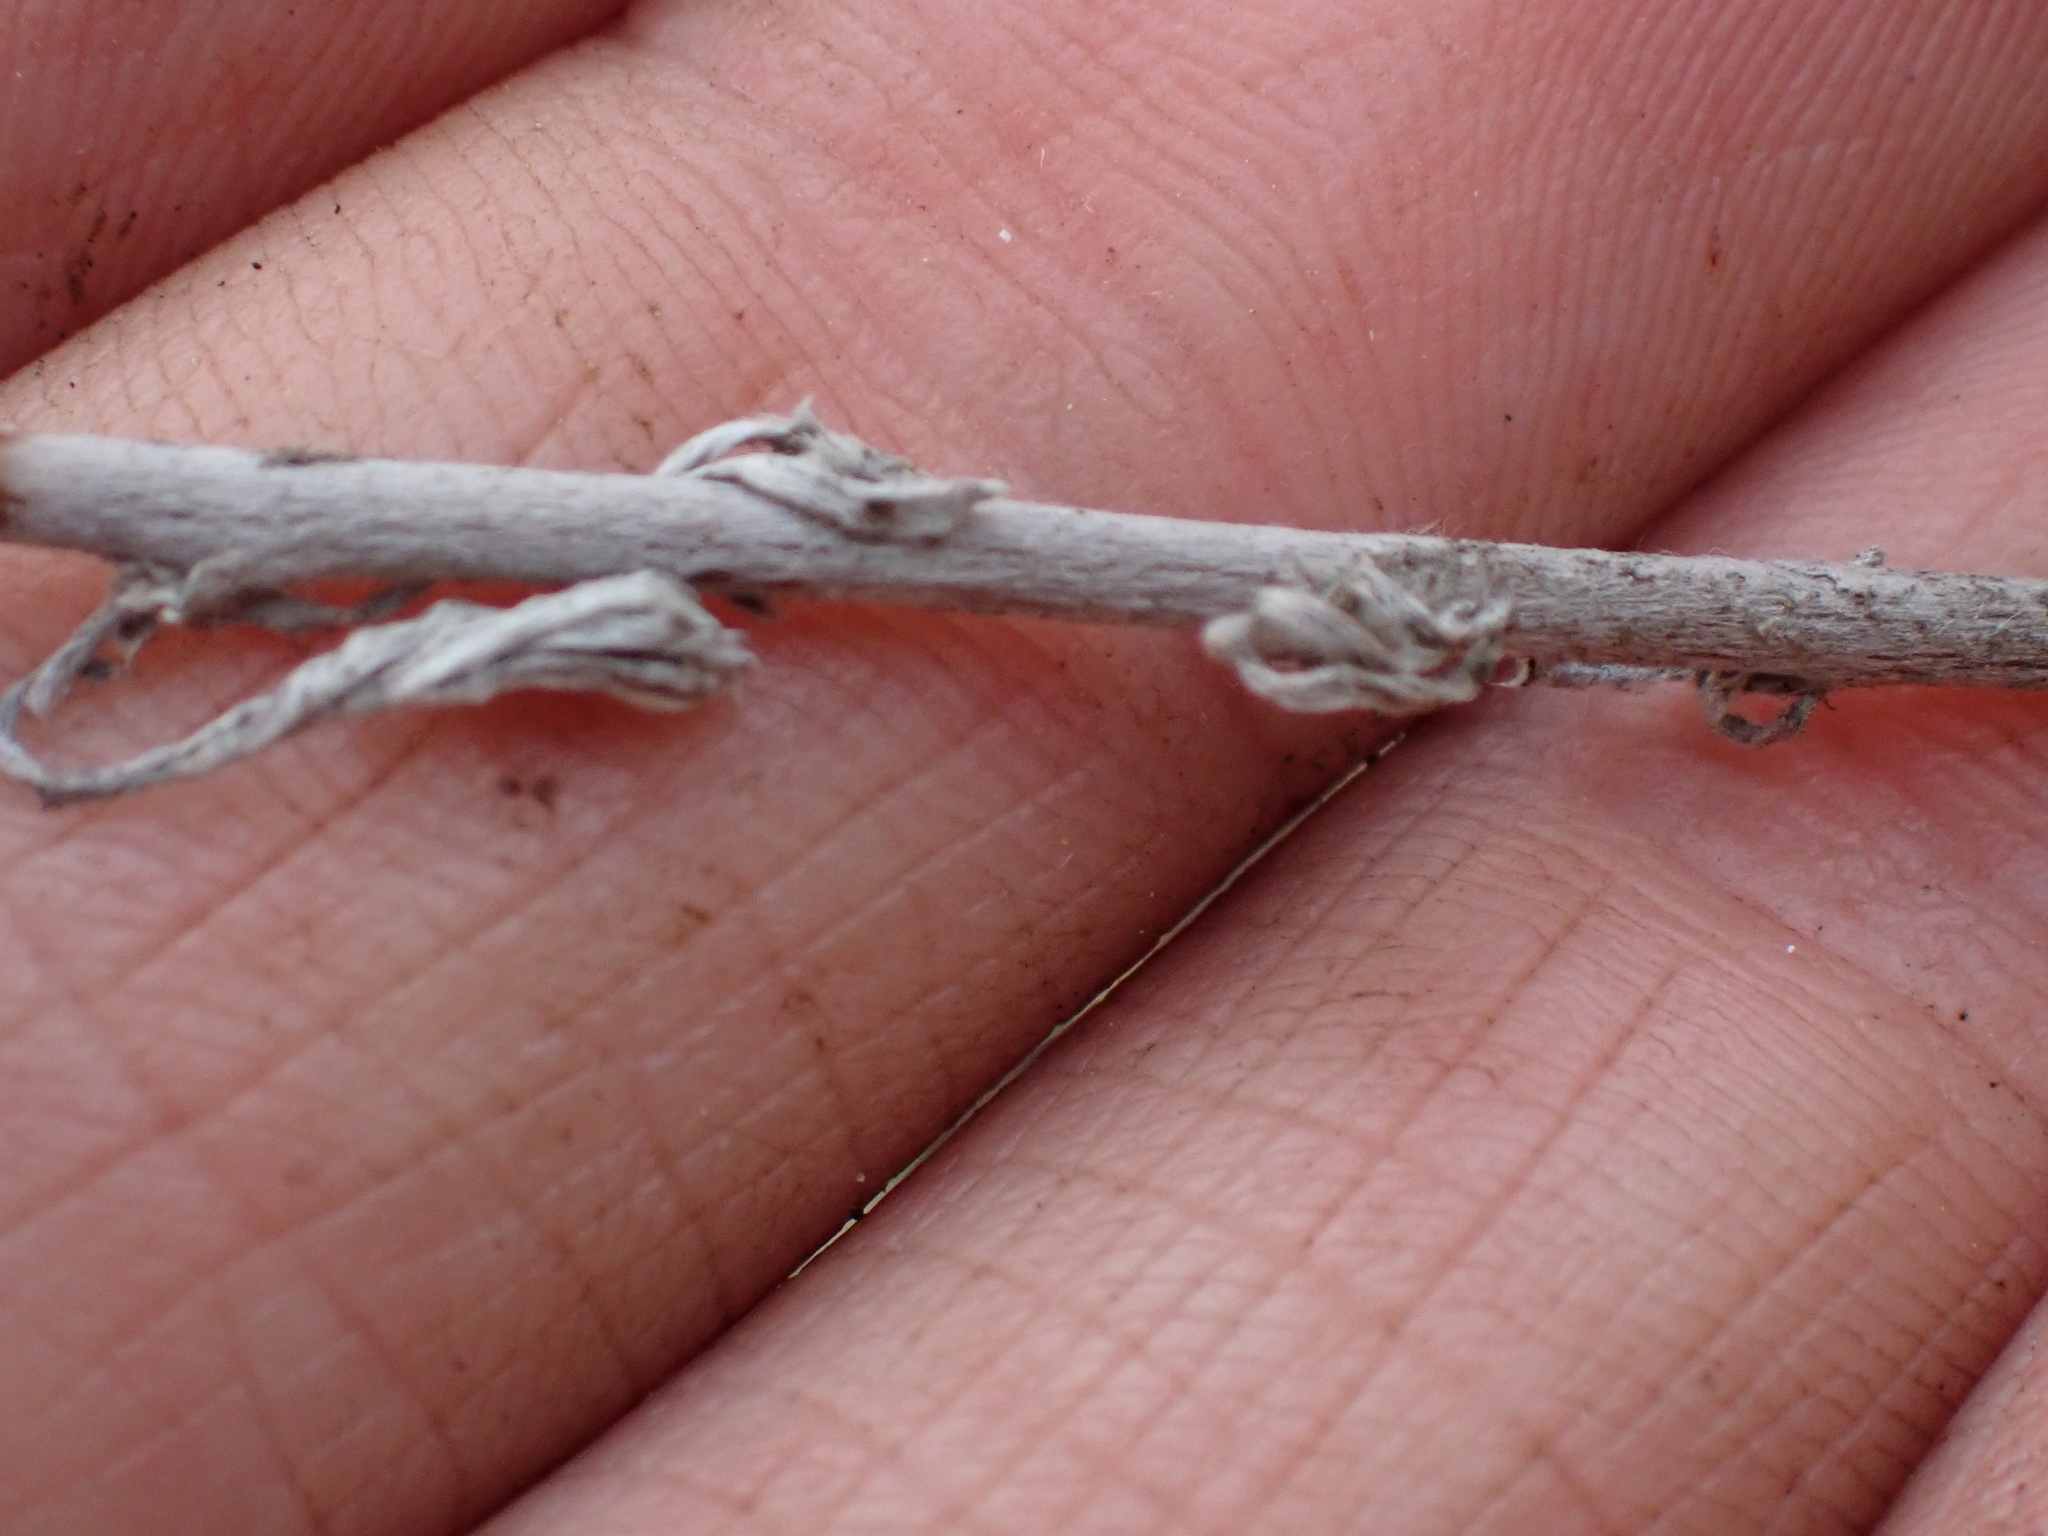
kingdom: Plantae
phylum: Tracheophyta
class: Magnoliopsida
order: Asterales
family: Asteraceae
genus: Artemisia
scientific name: Artemisia frigida
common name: Prairie sagewort
